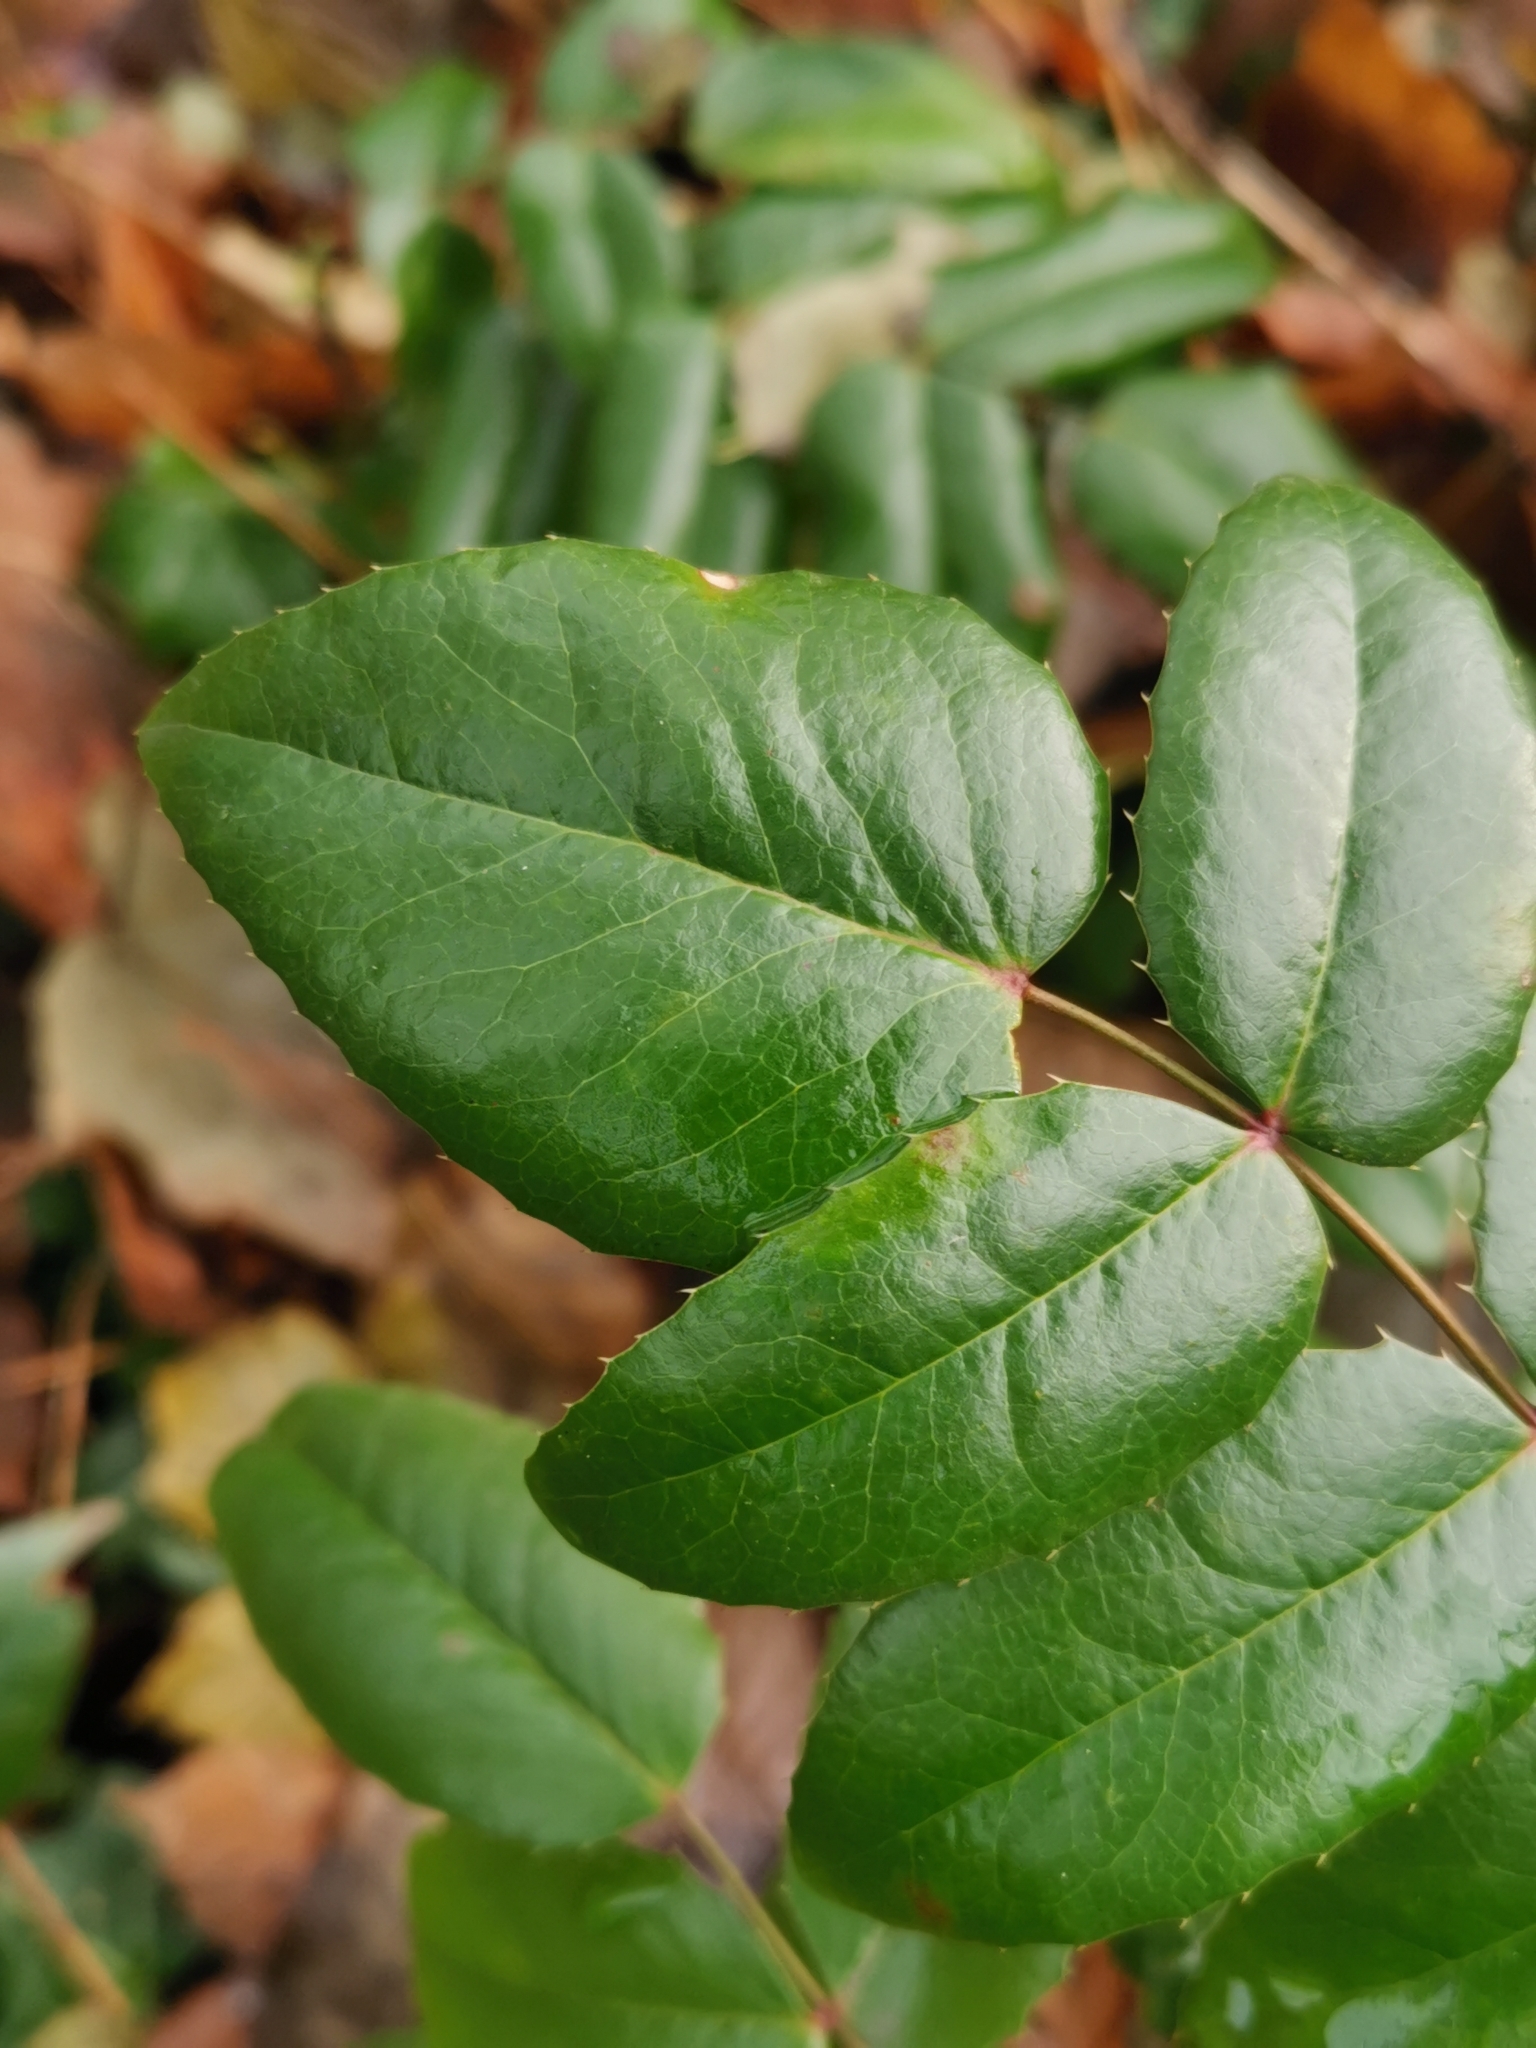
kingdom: Plantae
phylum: Tracheophyta
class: Magnoliopsida
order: Ranunculales
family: Berberidaceae
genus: Mahonia
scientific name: Mahonia aquifolium
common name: Oregon-grape
